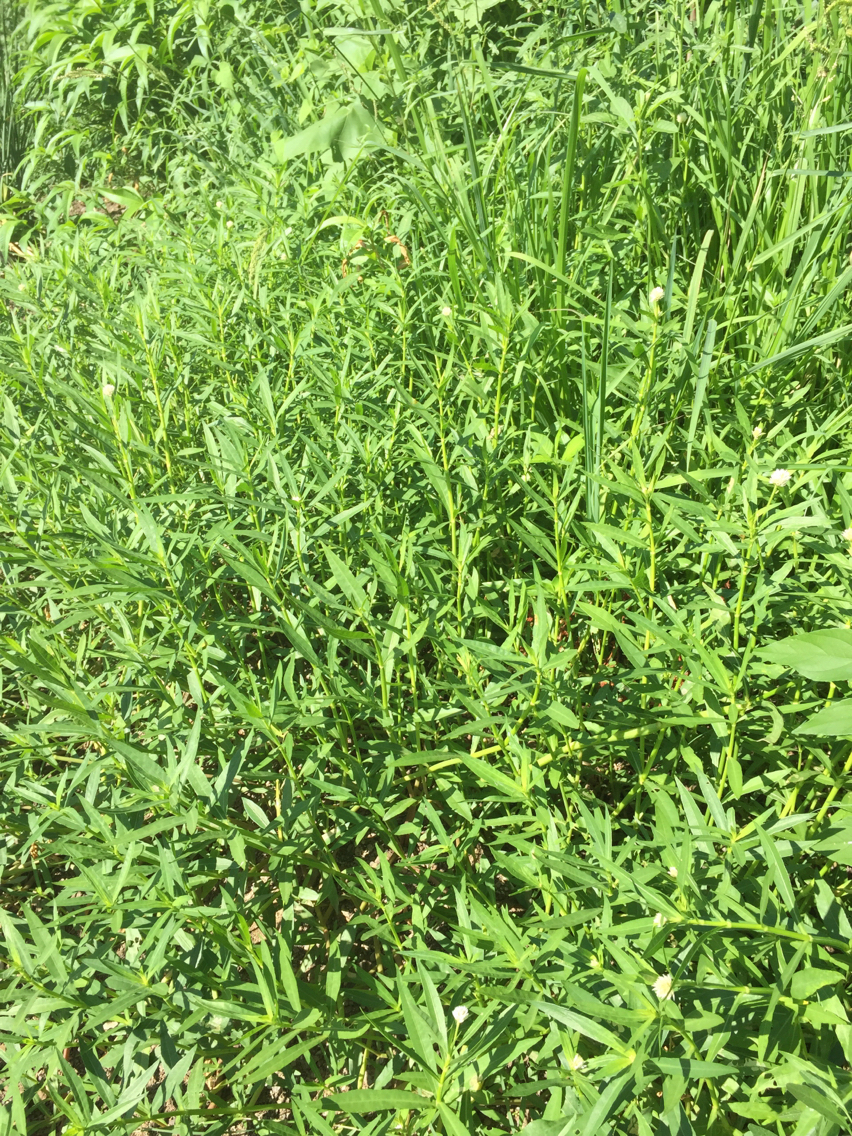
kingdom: Plantae
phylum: Tracheophyta
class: Magnoliopsida
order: Caryophyllales
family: Amaranthaceae
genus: Alternanthera
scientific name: Alternanthera philoxeroides
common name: Alligatorweed
